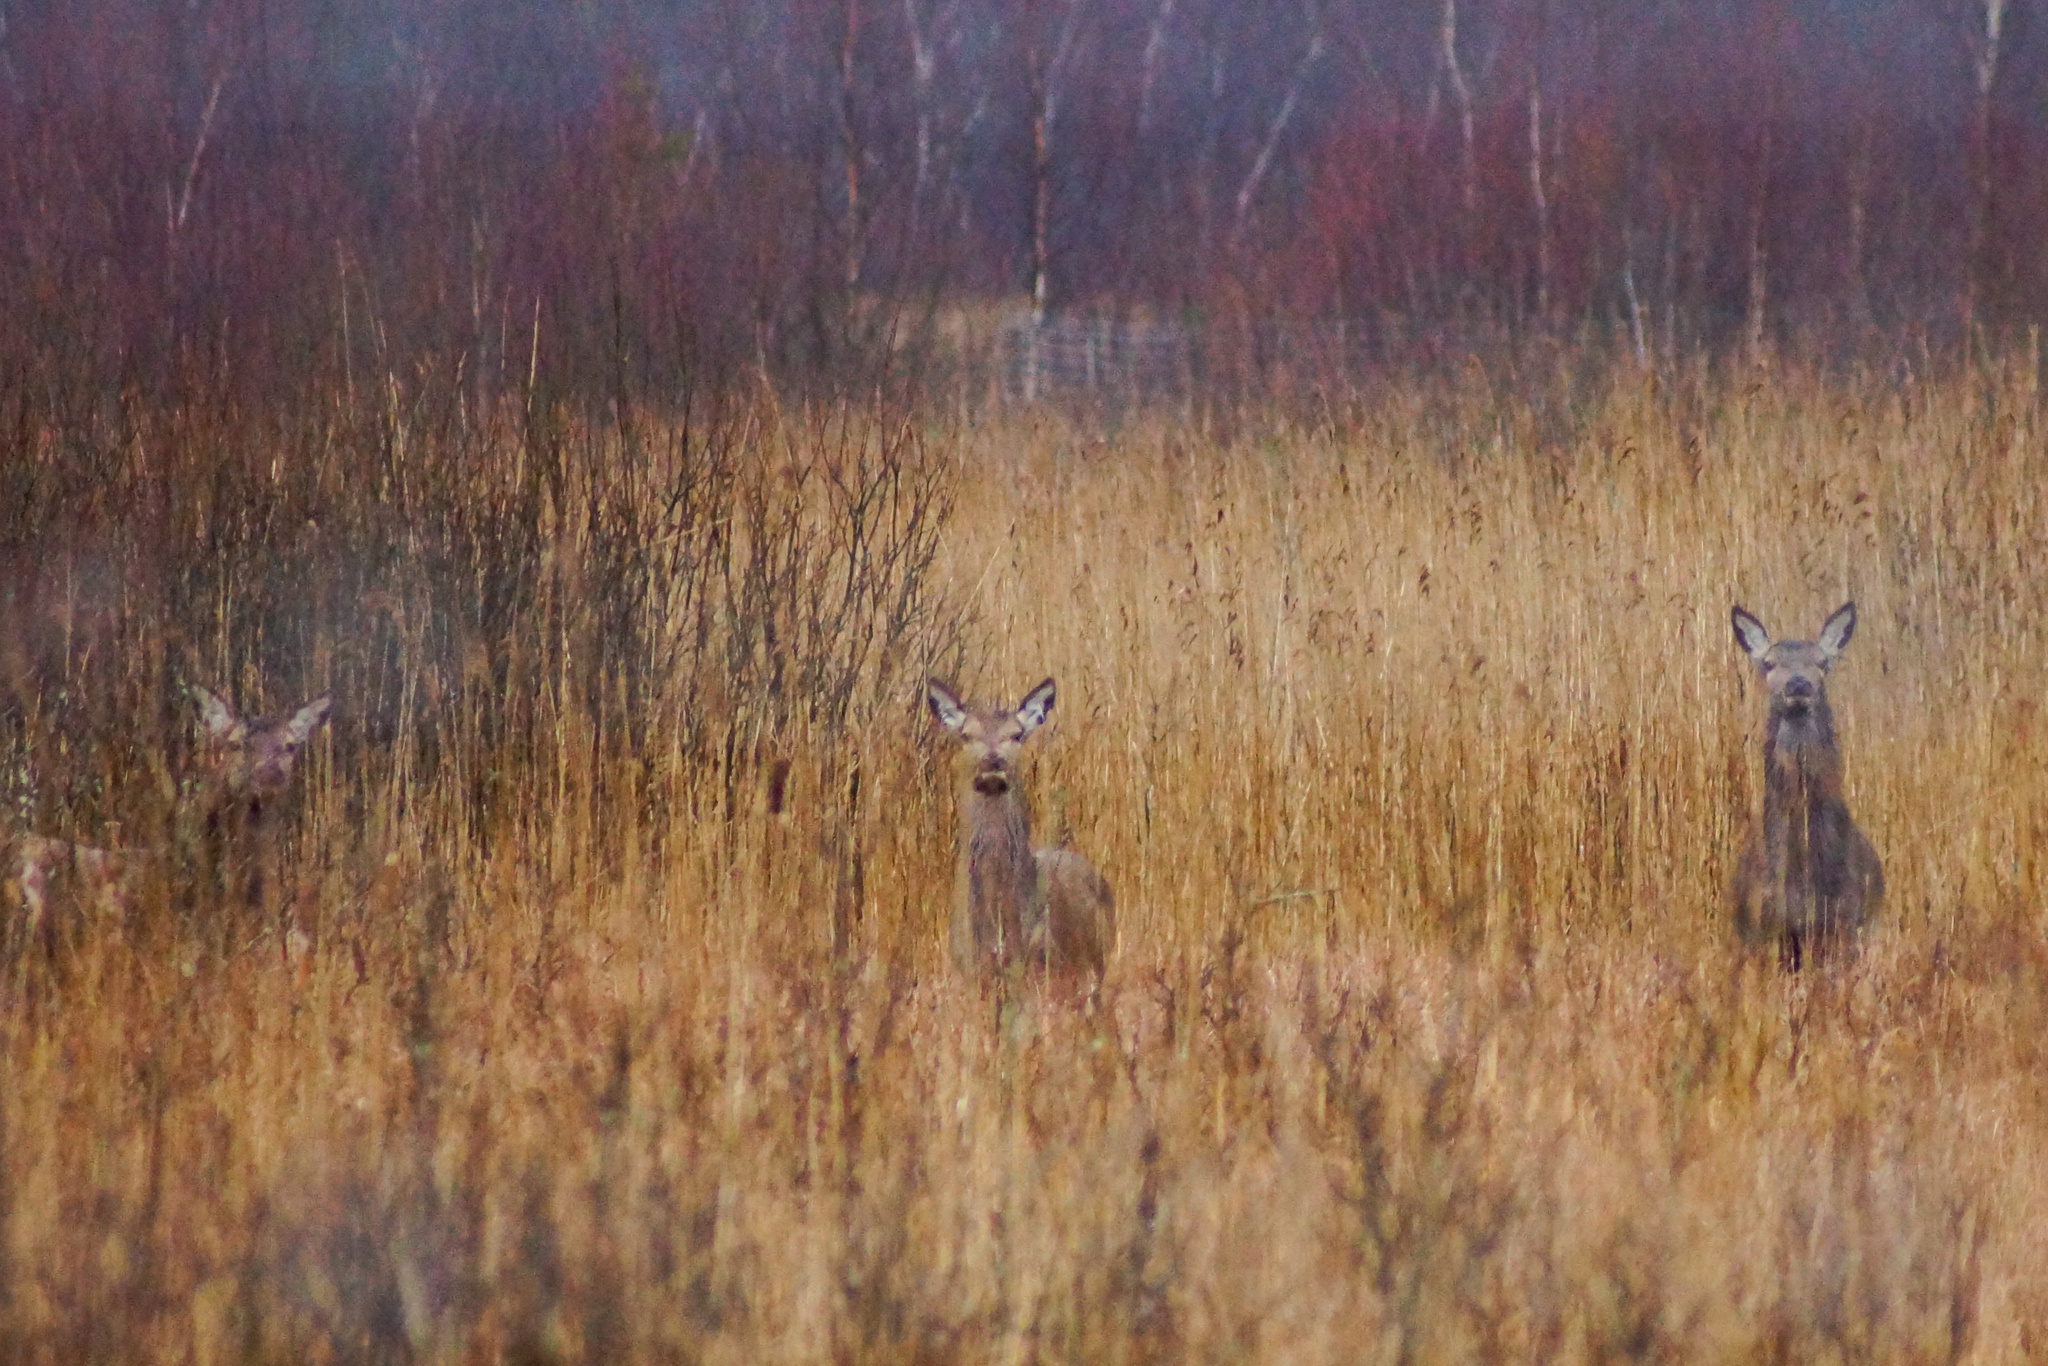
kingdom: Animalia
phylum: Chordata
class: Mammalia
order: Artiodactyla
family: Cervidae
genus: Cervus
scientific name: Cervus elaphus
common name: Red deer
